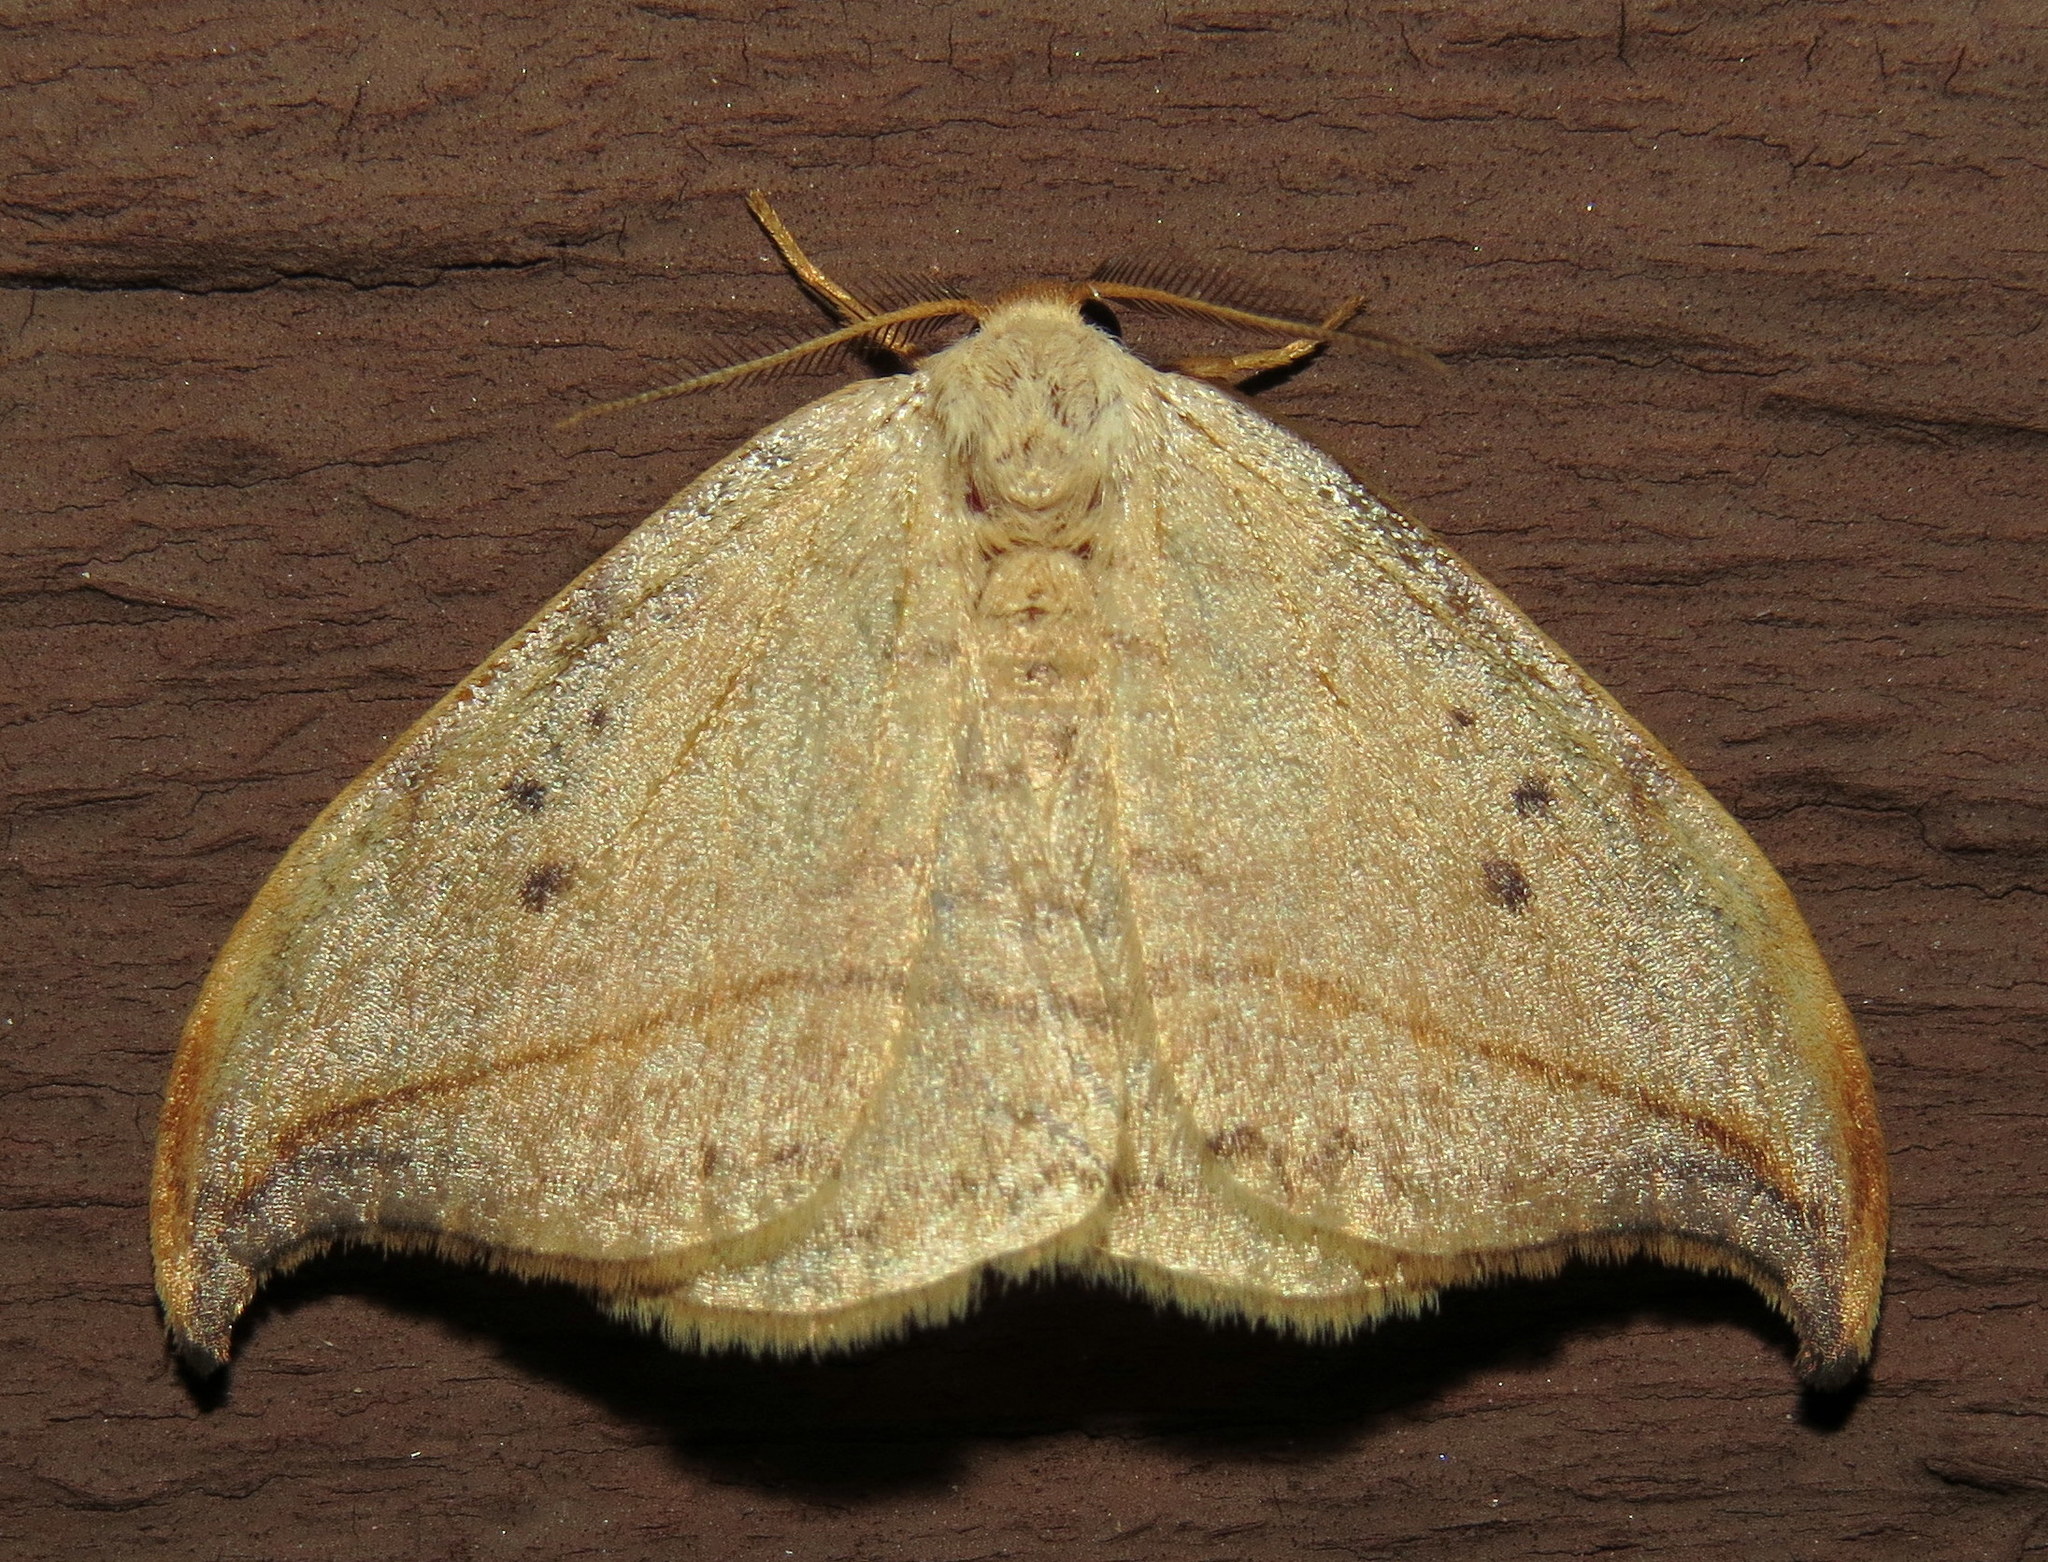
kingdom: Animalia
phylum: Arthropoda
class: Insecta
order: Lepidoptera
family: Drepanidae
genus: Drepana
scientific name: Drepana arcuata
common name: Arched hooktip moth
